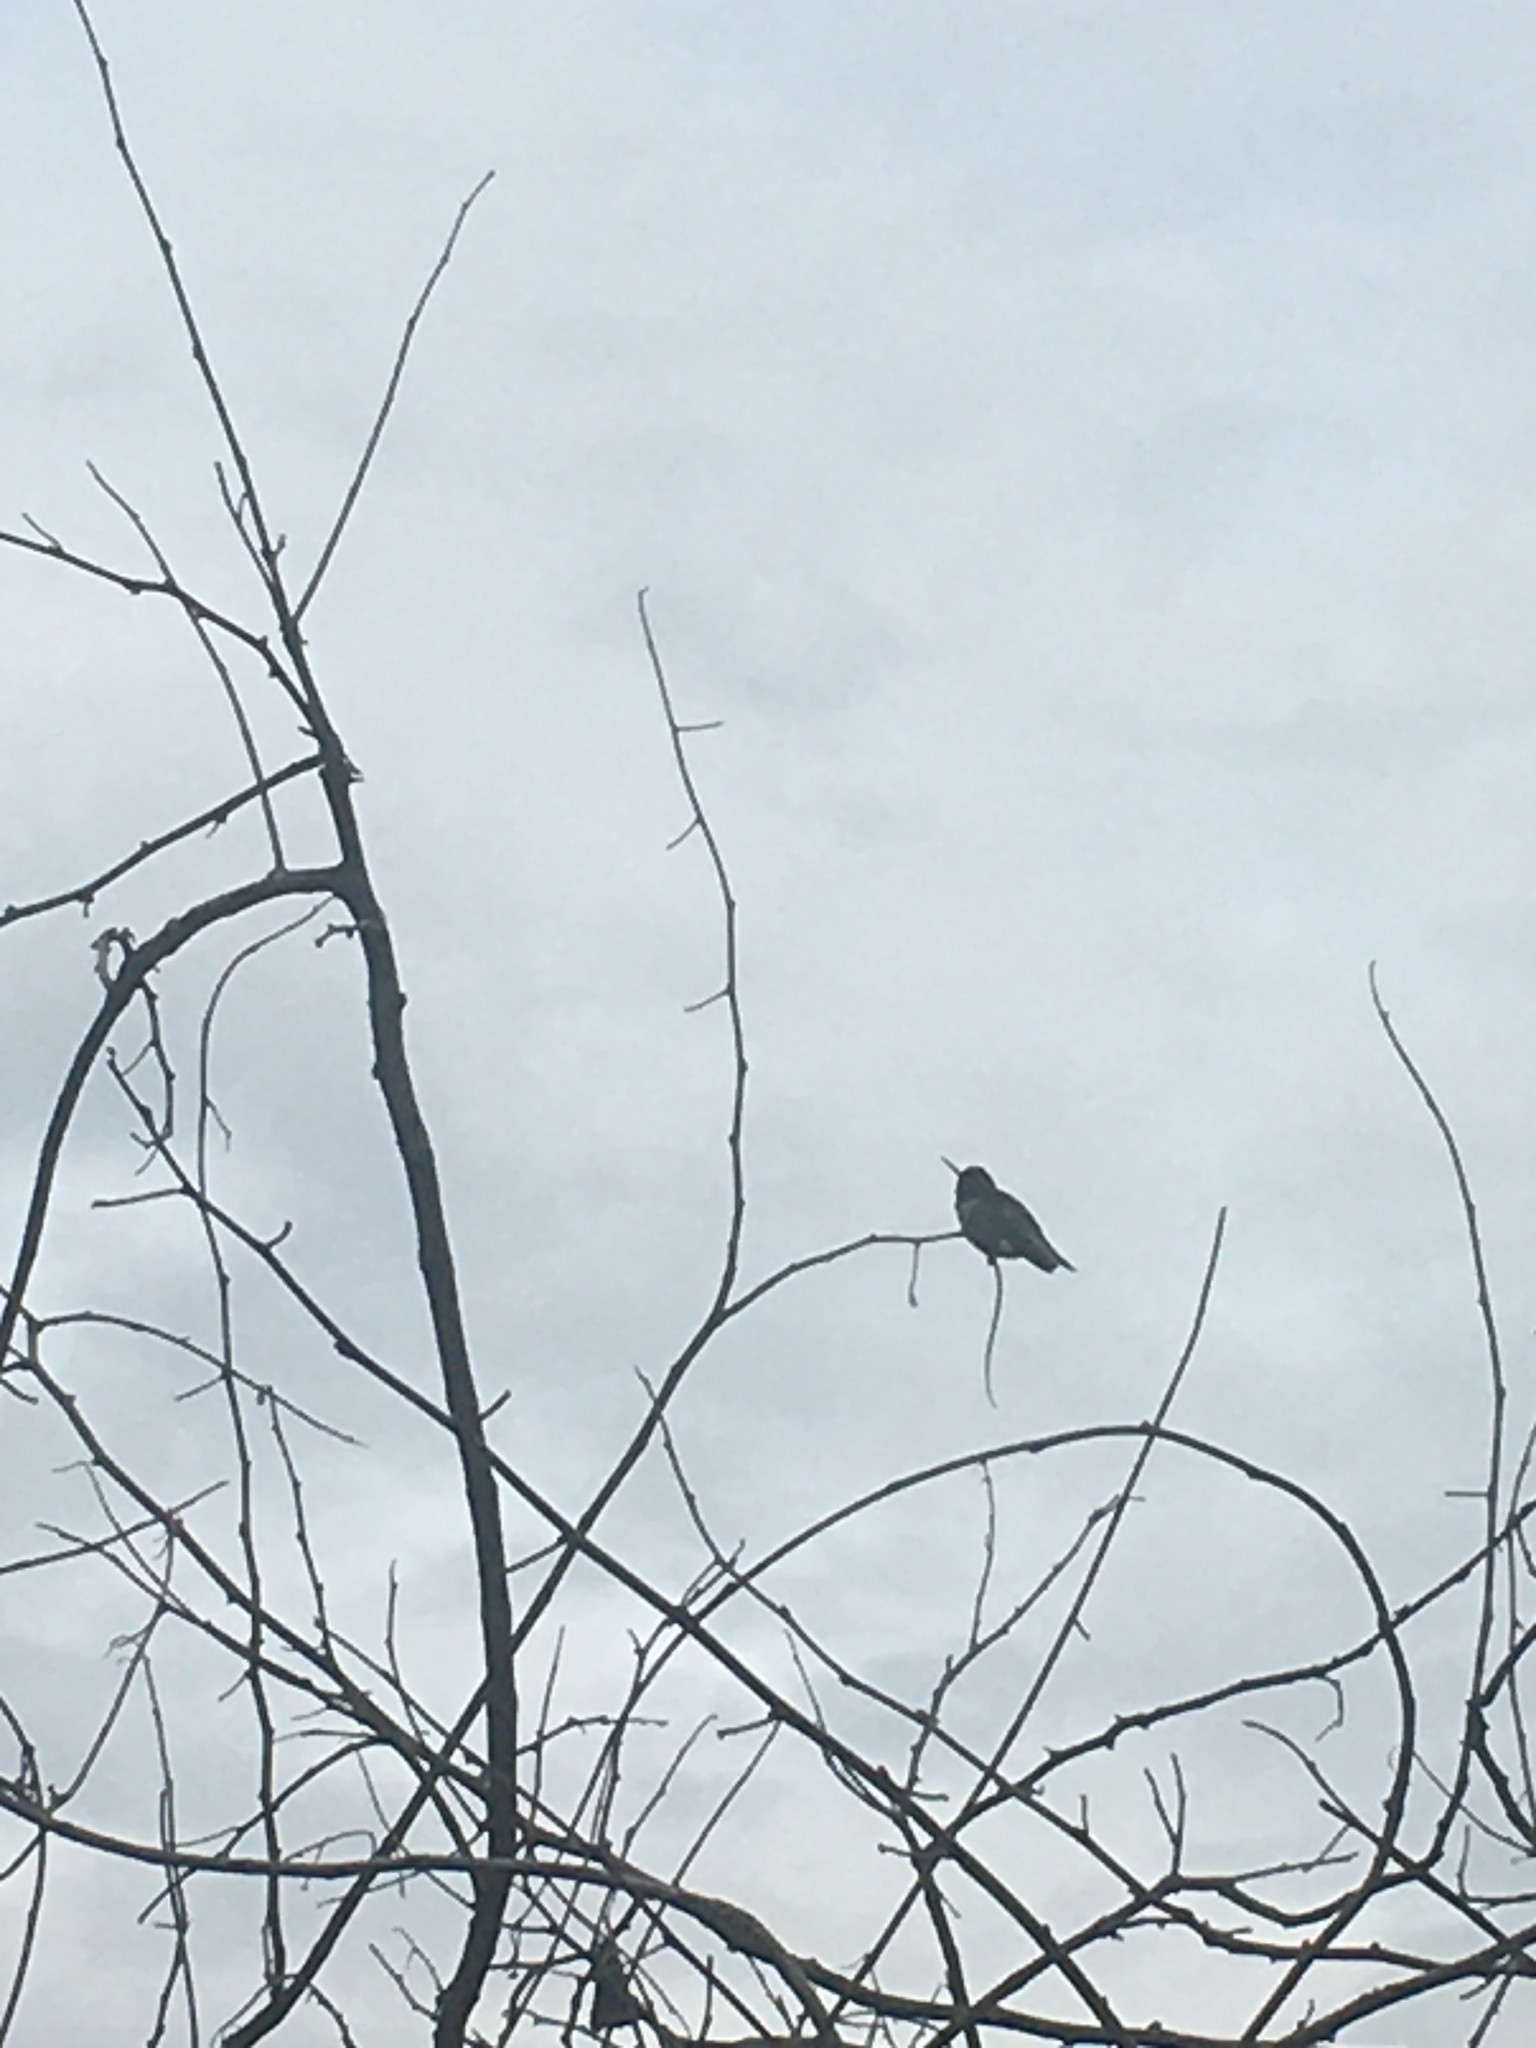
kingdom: Animalia
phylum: Chordata
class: Aves
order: Apodiformes
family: Trochilidae
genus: Calypte
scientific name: Calypte anna
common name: Anna's hummingbird
